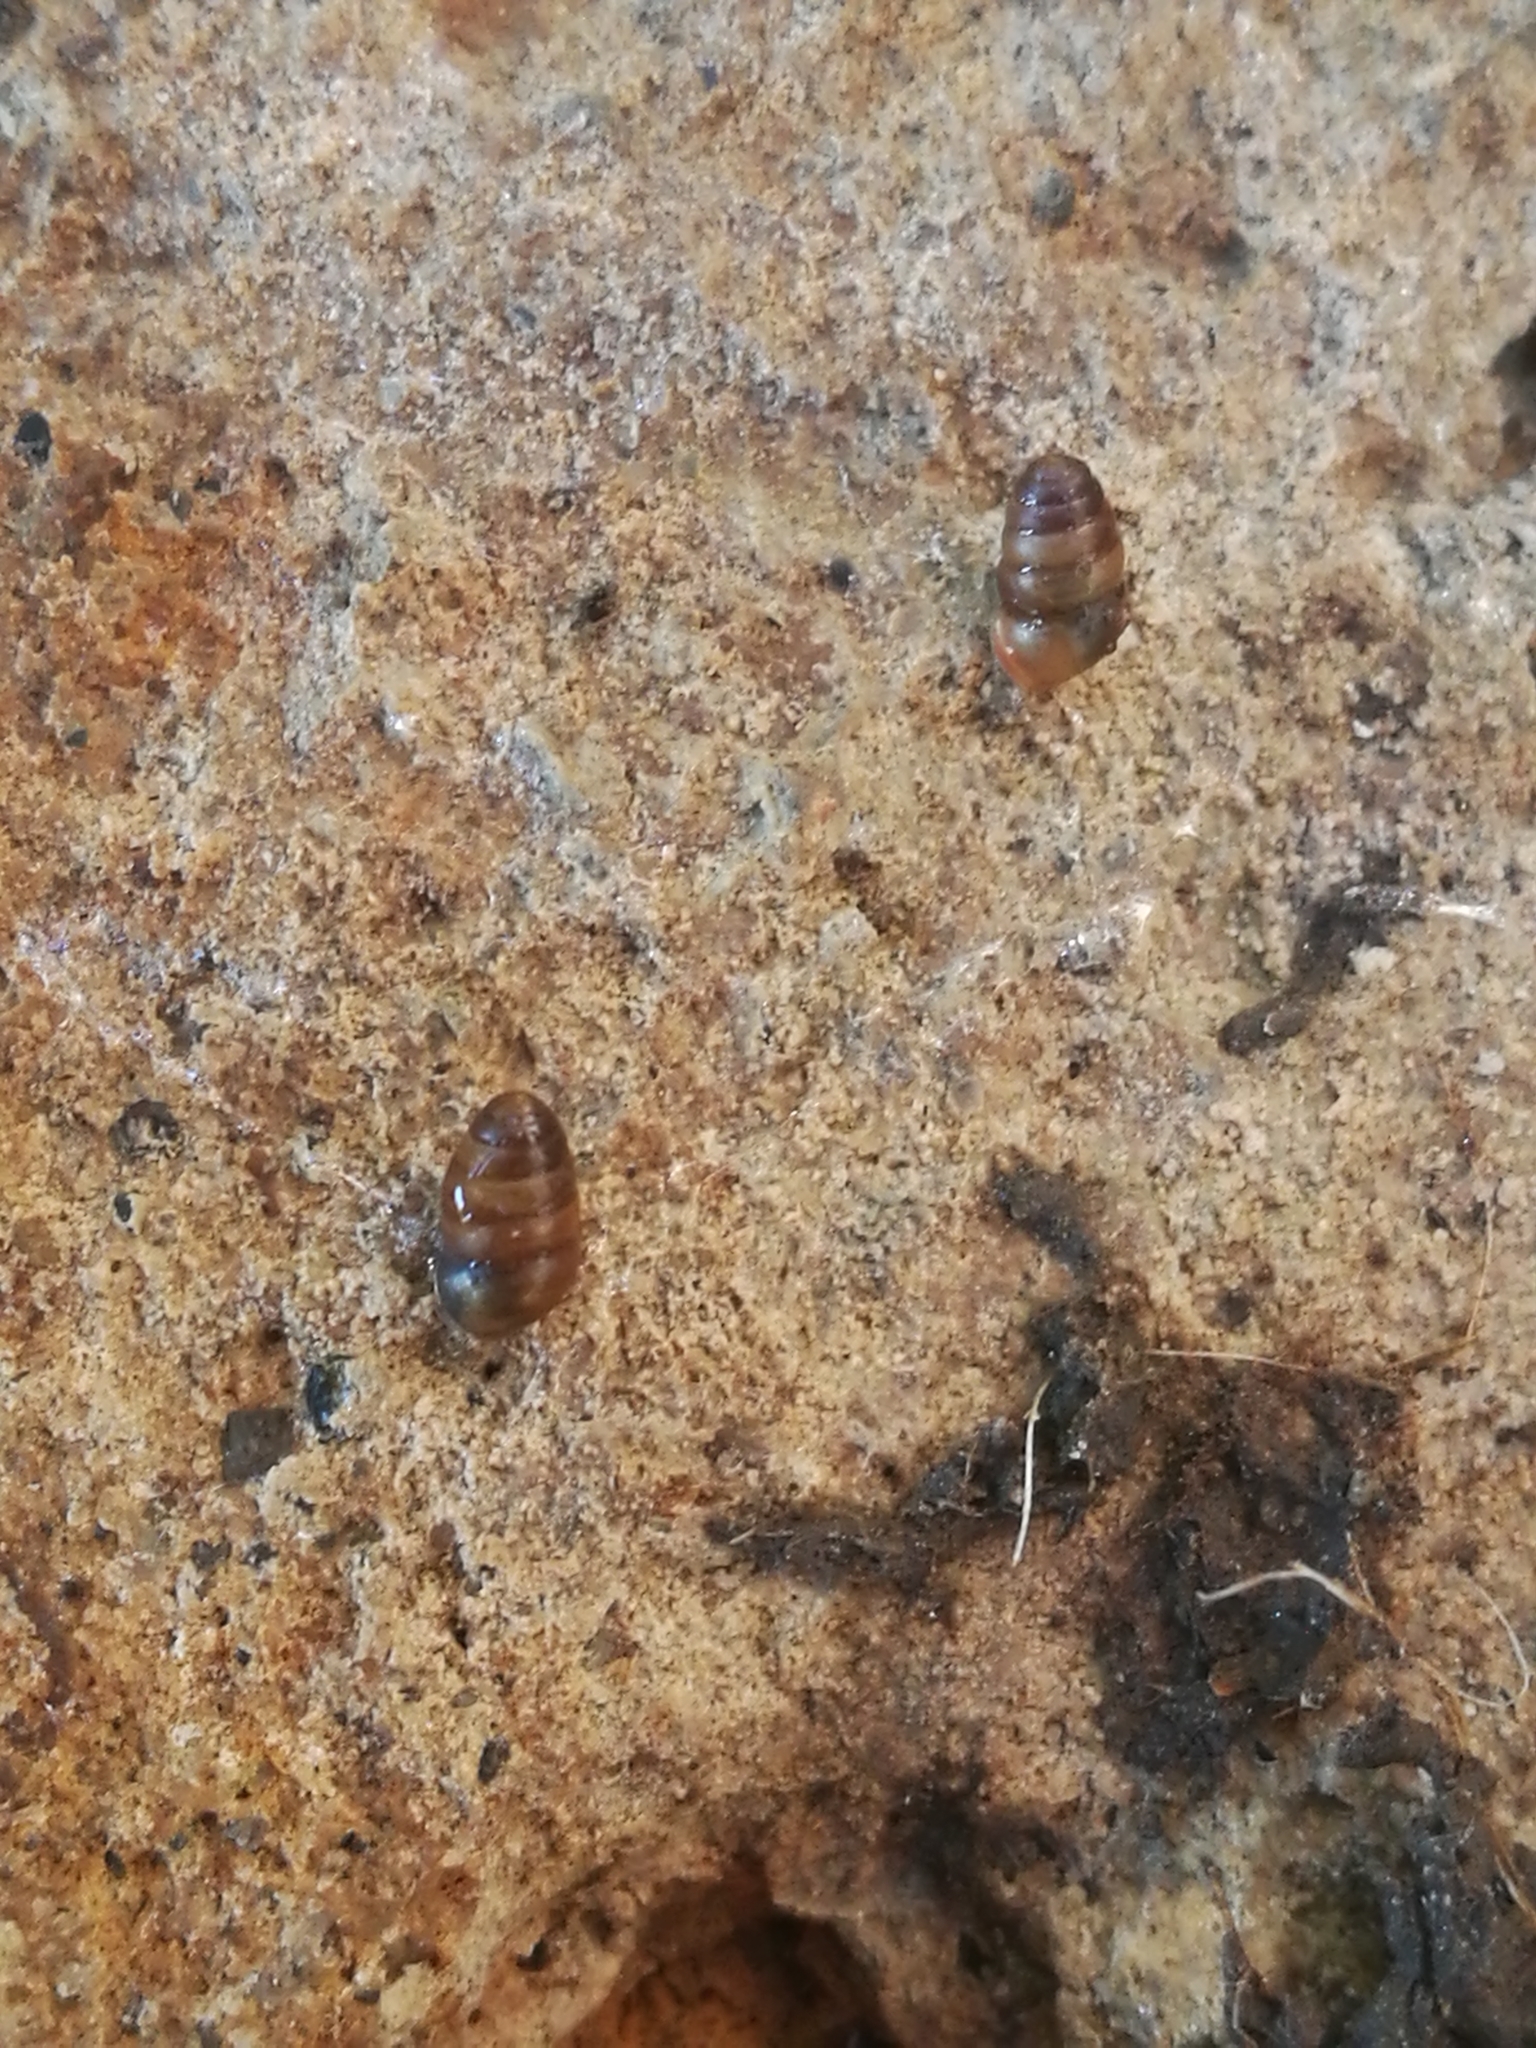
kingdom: Animalia
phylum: Mollusca
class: Gastropoda
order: Stylommatophora
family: Lauriidae
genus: Lauria
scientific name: Lauria cylindracea
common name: Common chrysalis snail
